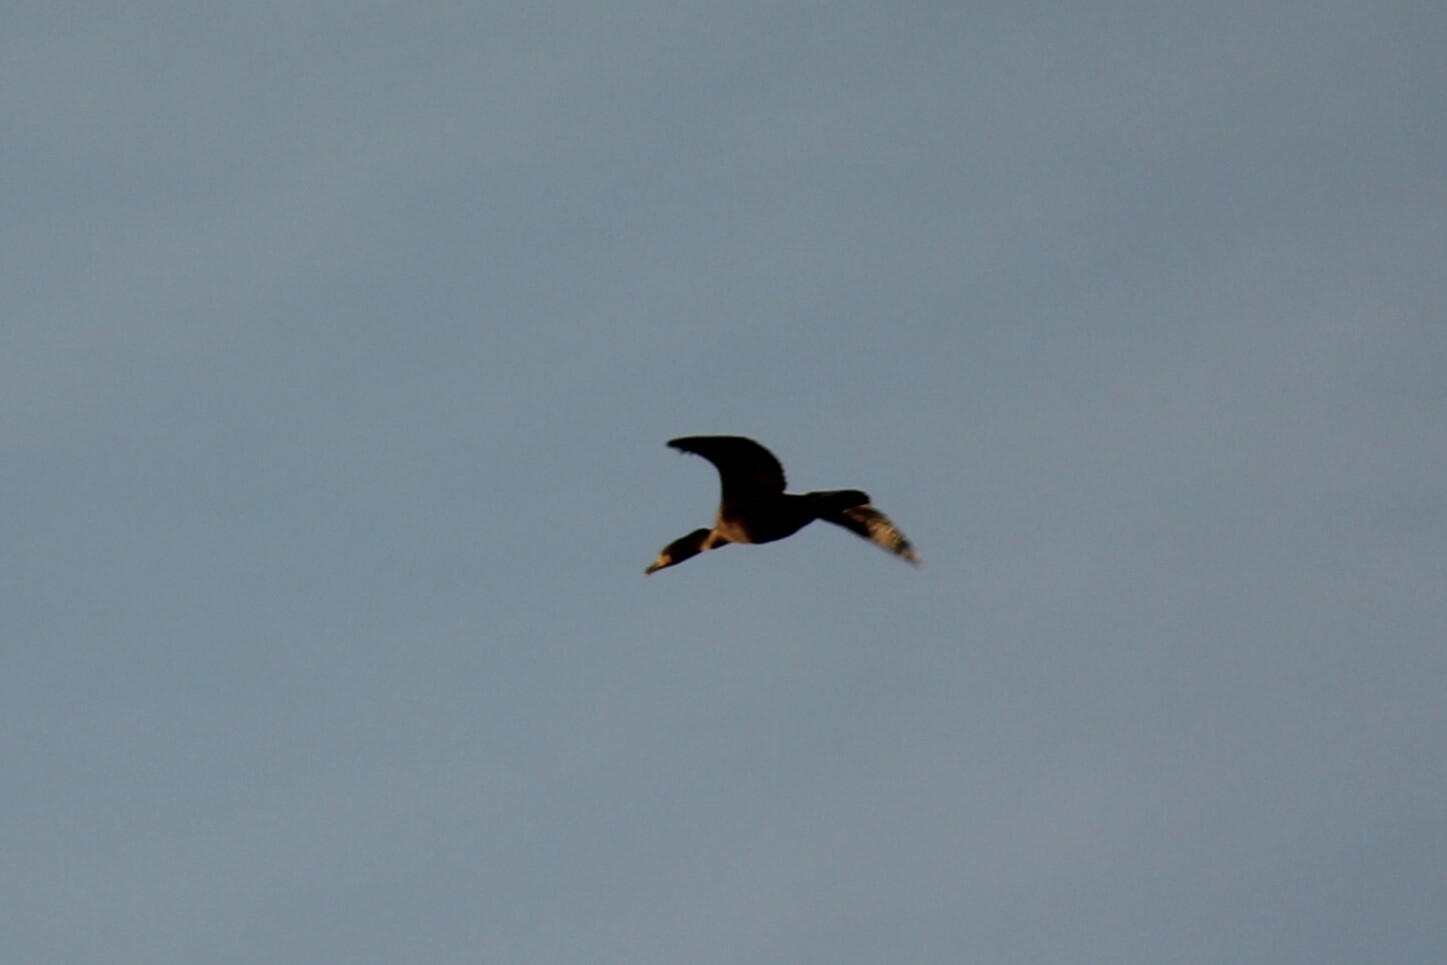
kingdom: Animalia
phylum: Chordata
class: Aves
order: Suliformes
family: Phalacrocoracidae
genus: Phalacrocorax
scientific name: Phalacrocorax auritus
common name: Double-crested cormorant
